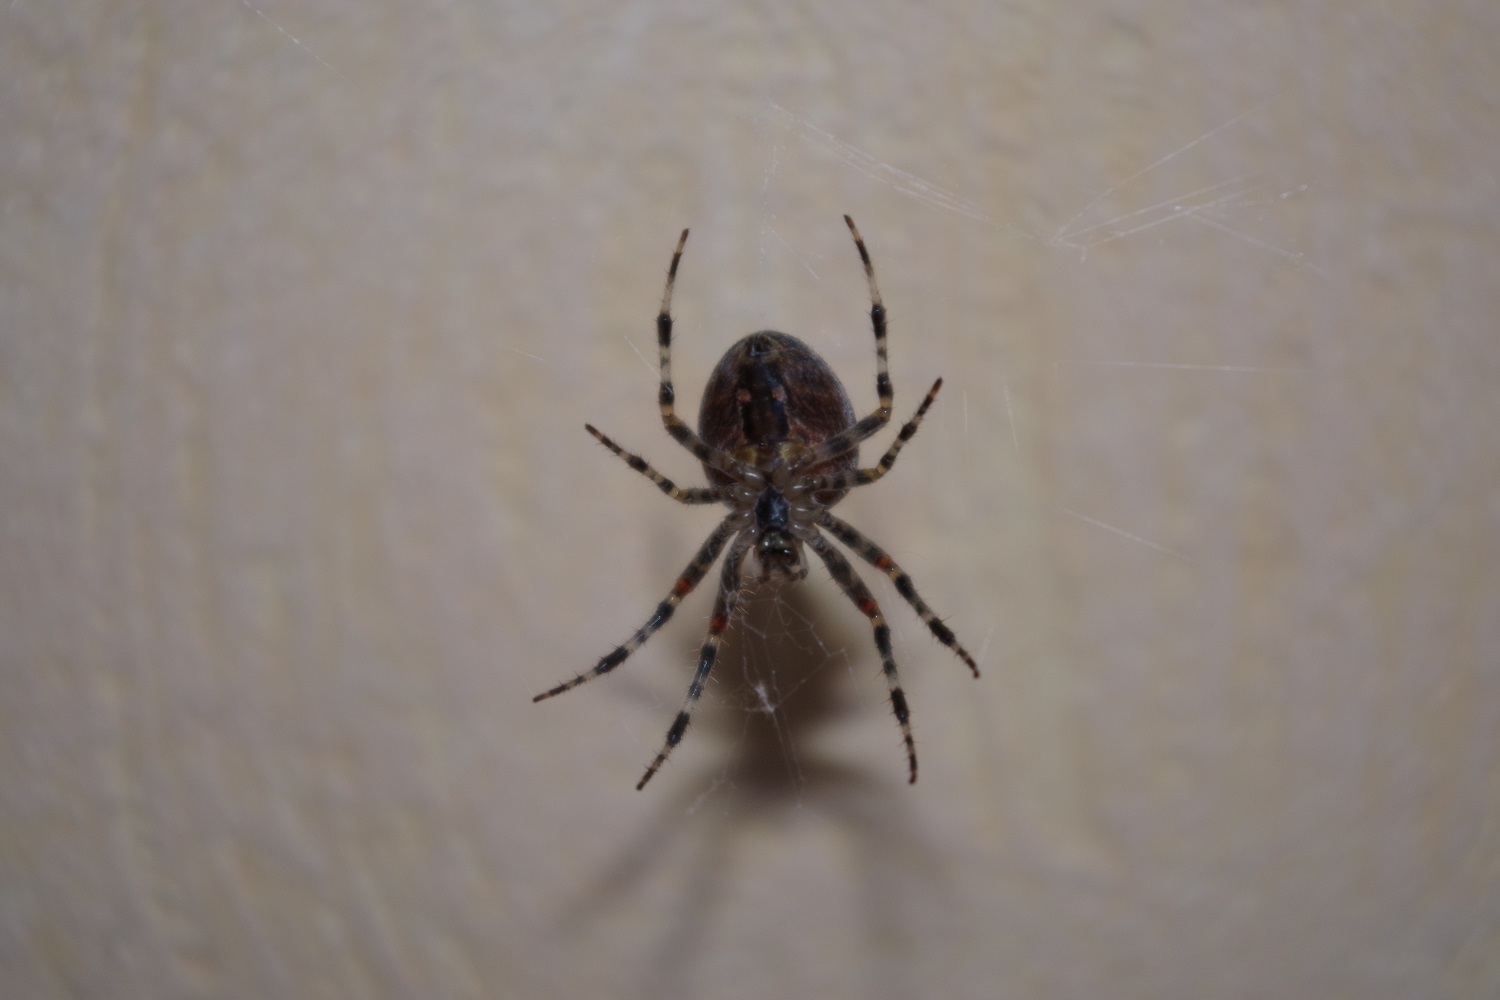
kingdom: Animalia
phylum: Arthropoda
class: Arachnida
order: Araneae
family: Araneidae
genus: Araneus
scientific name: Araneus diadematus
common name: Cross orbweaver
